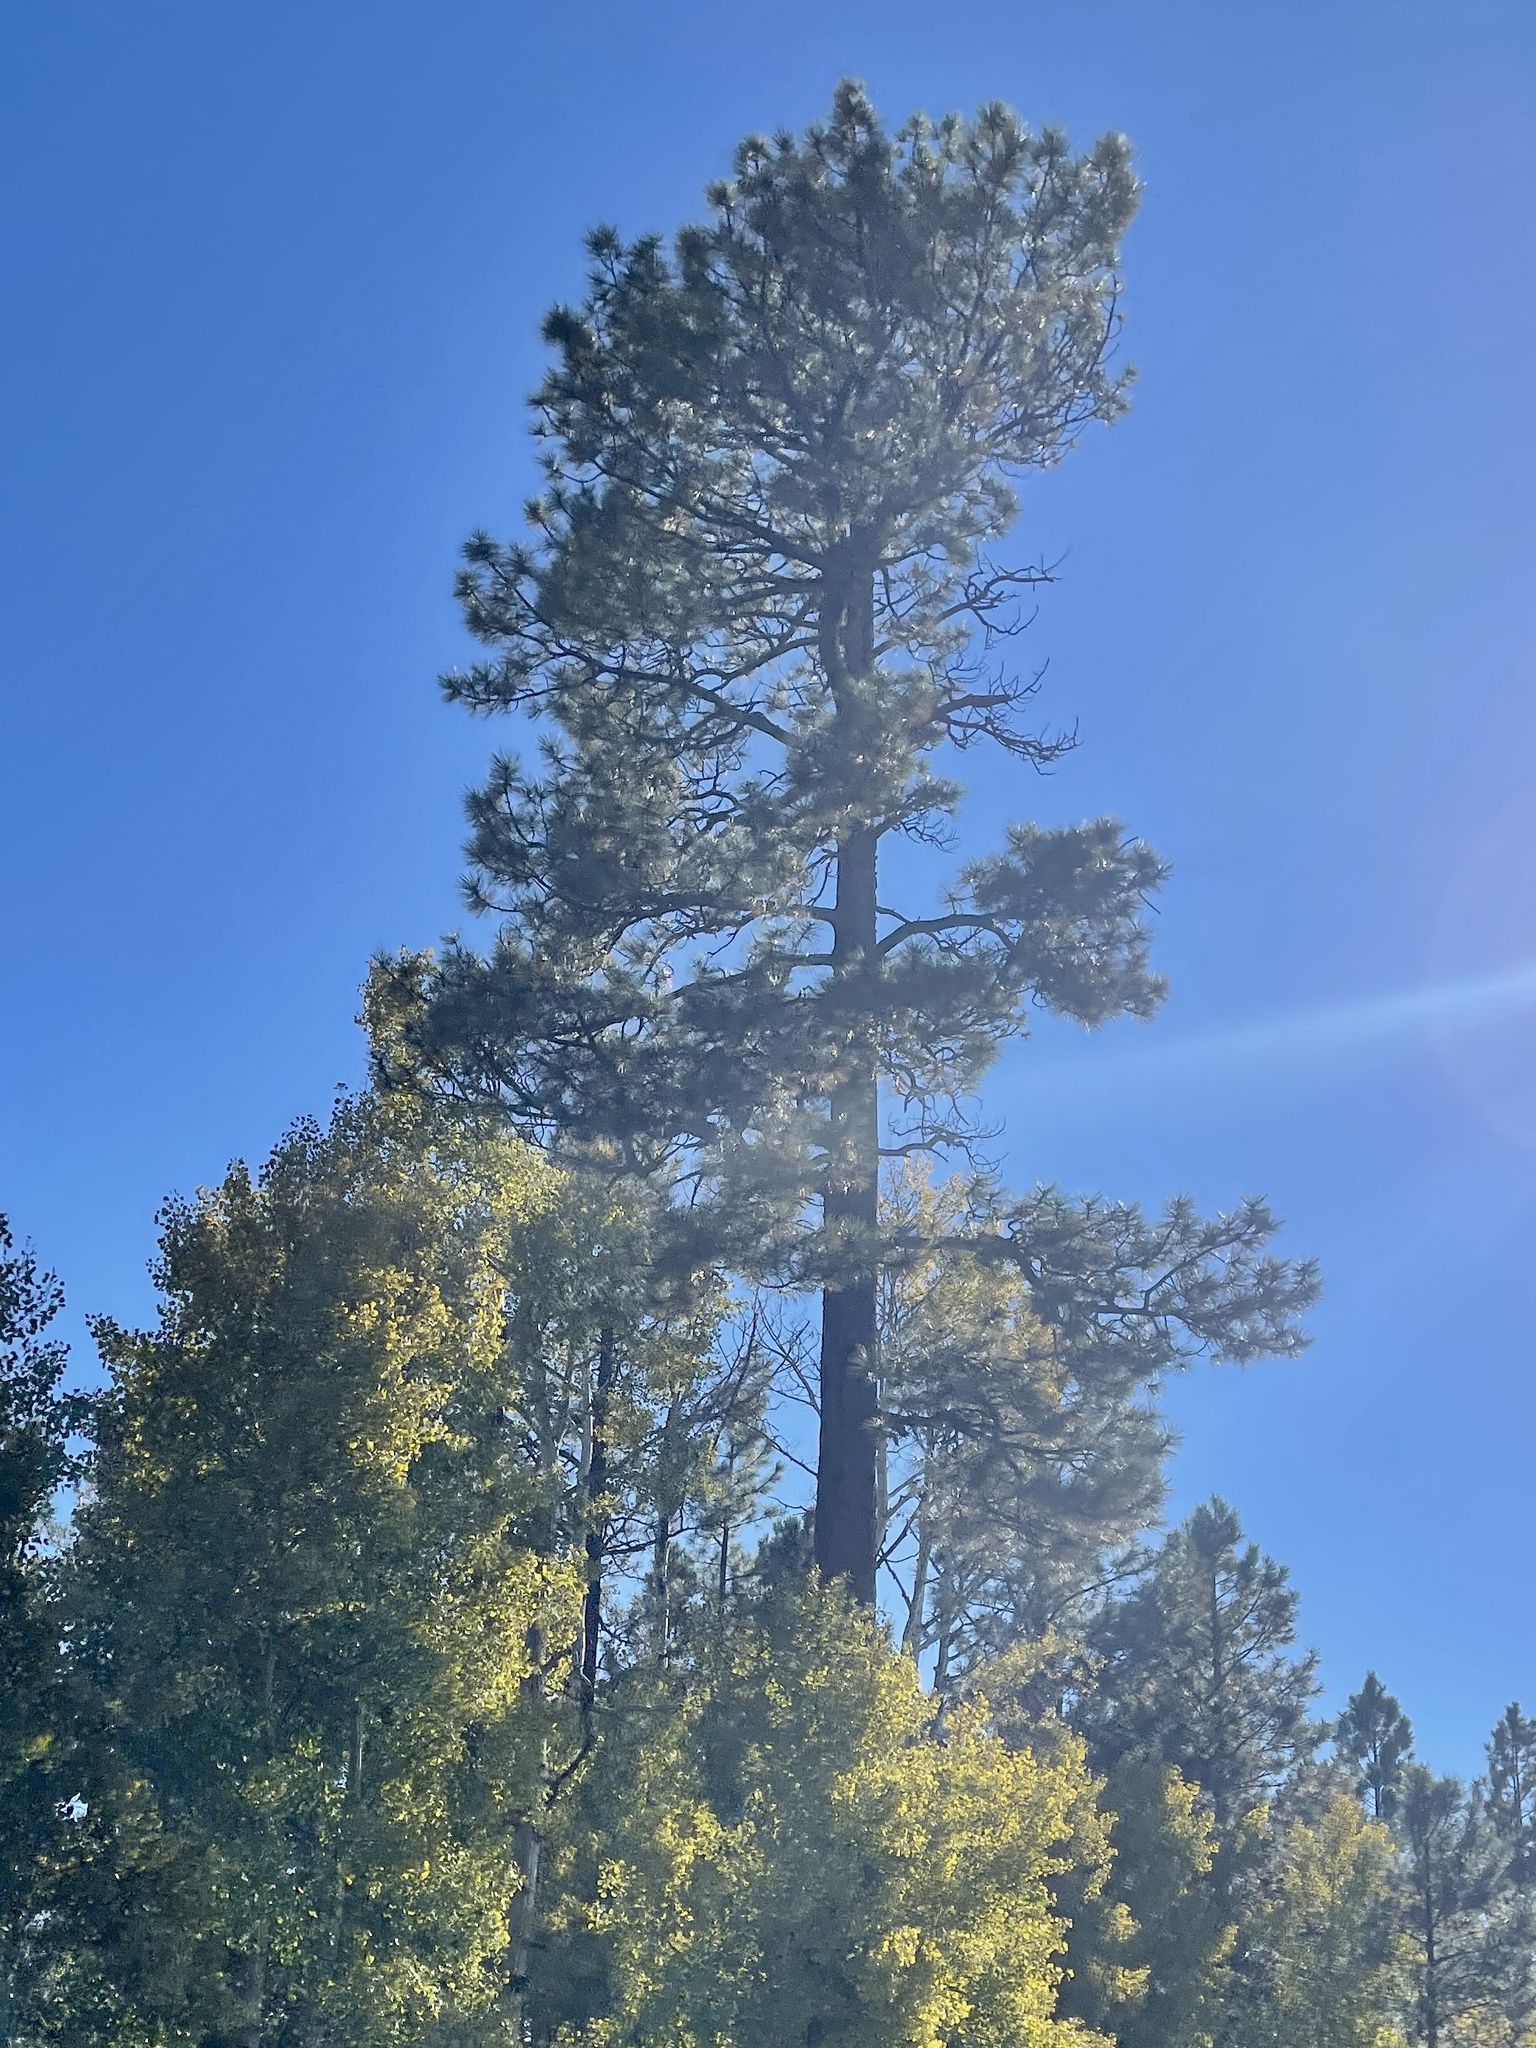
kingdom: Plantae
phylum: Tracheophyta
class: Pinopsida
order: Pinales
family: Pinaceae
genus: Pinus
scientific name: Pinus ponderosa
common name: Western yellow-pine
